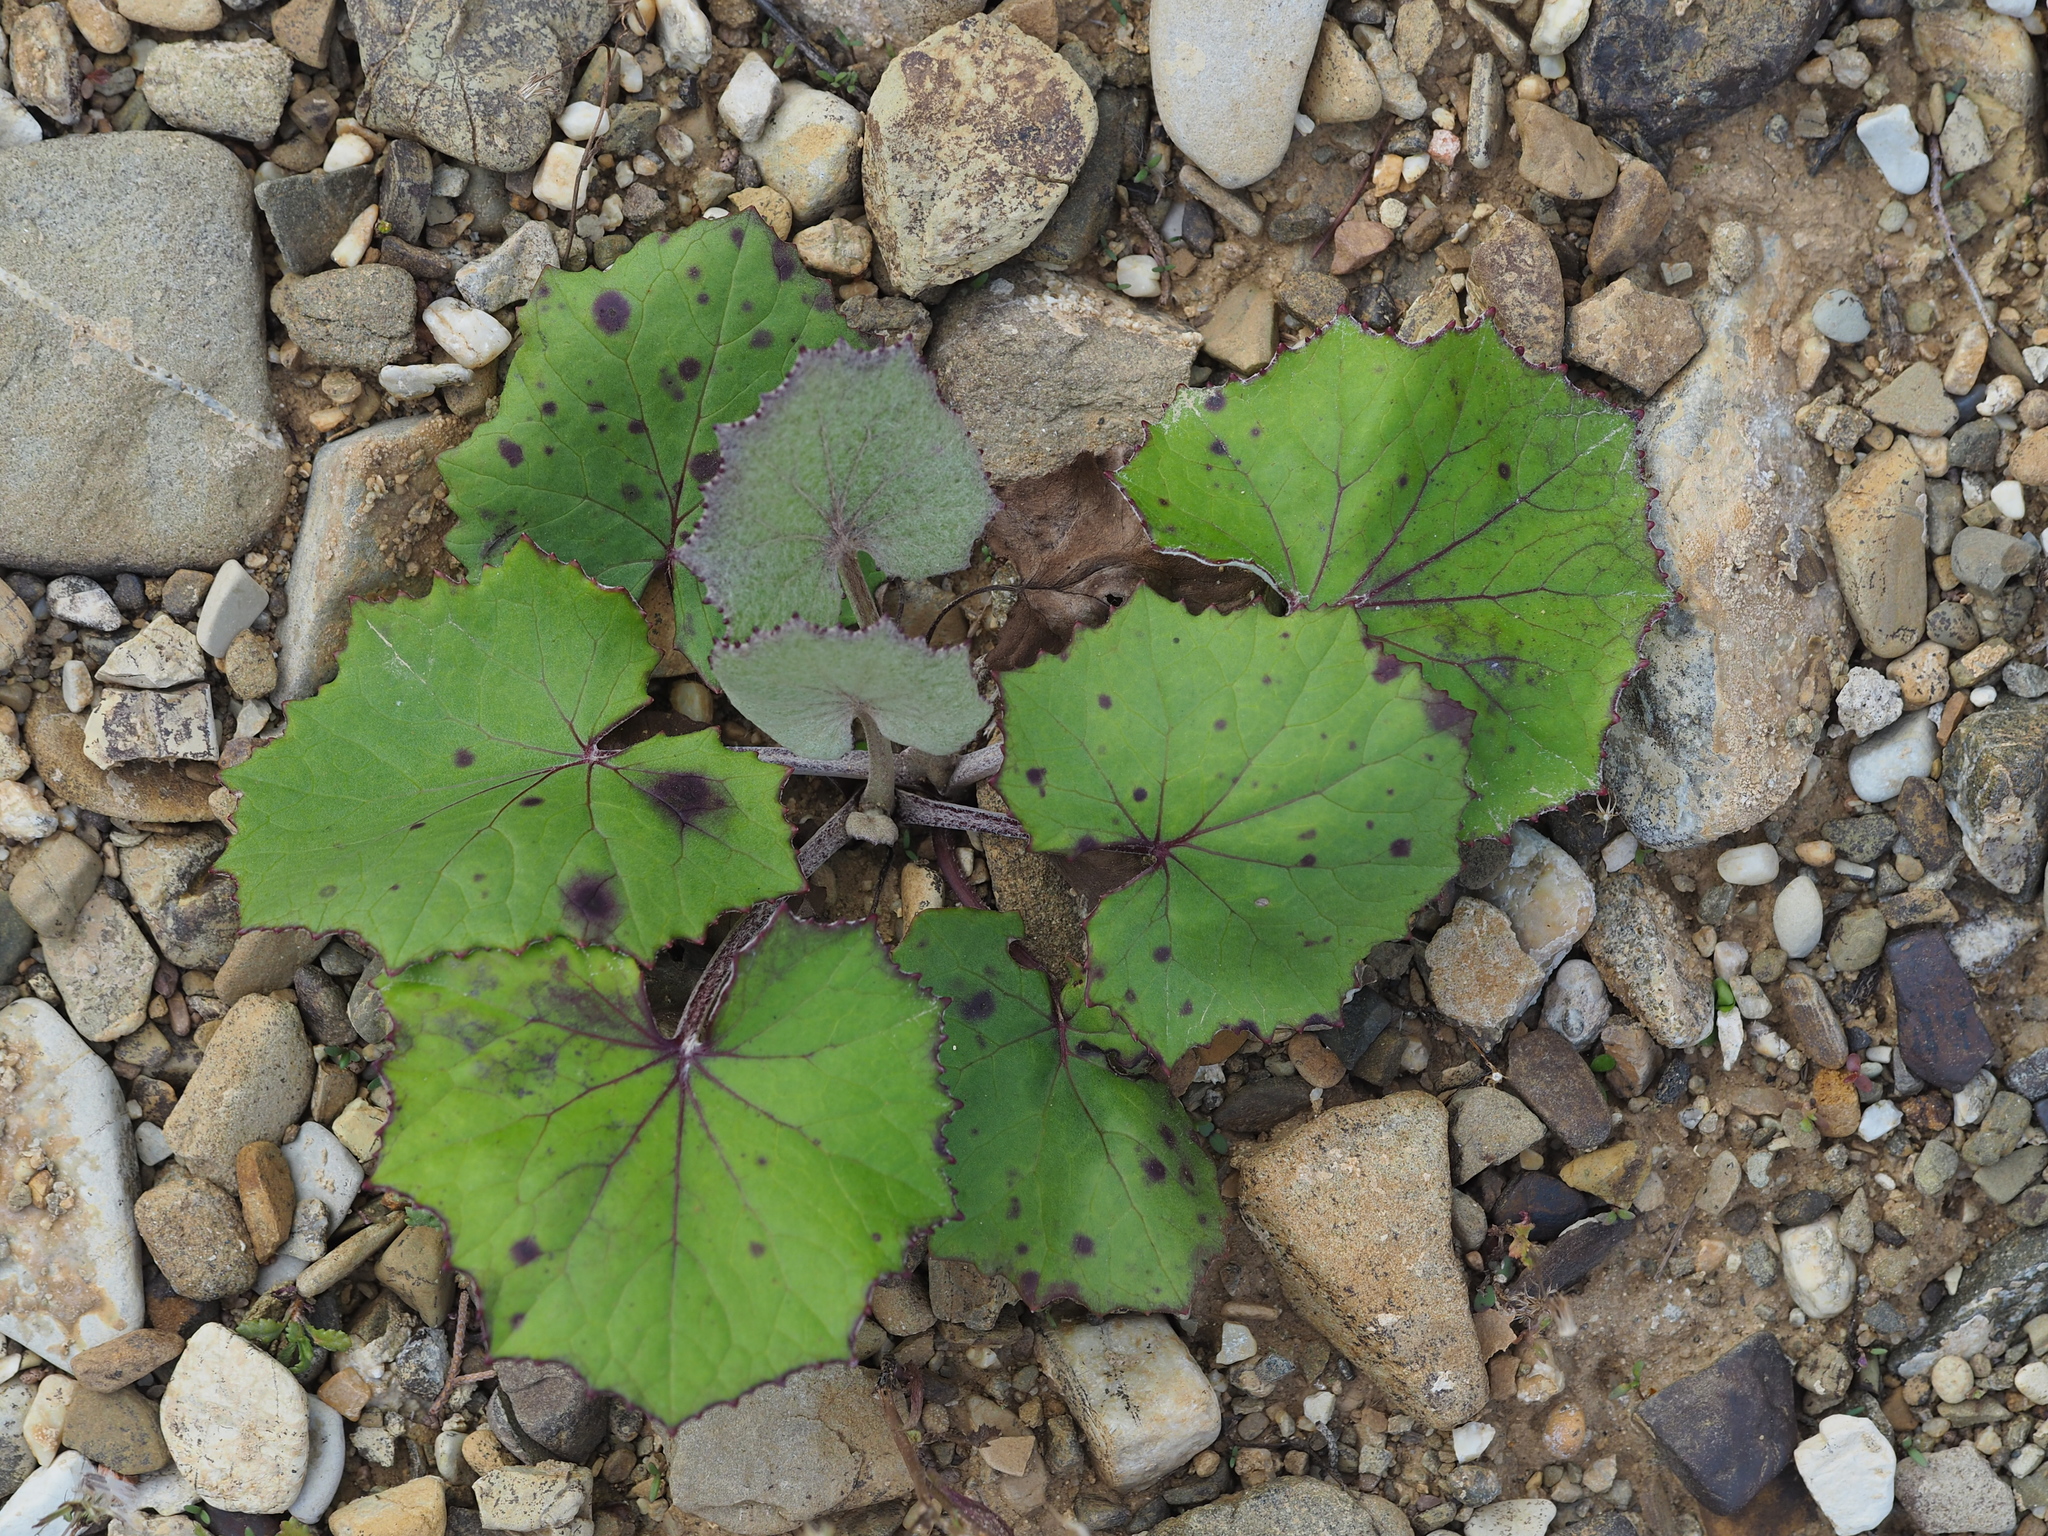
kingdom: Plantae
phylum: Tracheophyta
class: Magnoliopsida
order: Asterales
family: Asteraceae
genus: Tussilago
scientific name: Tussilago farfara
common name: Coltsfoot
